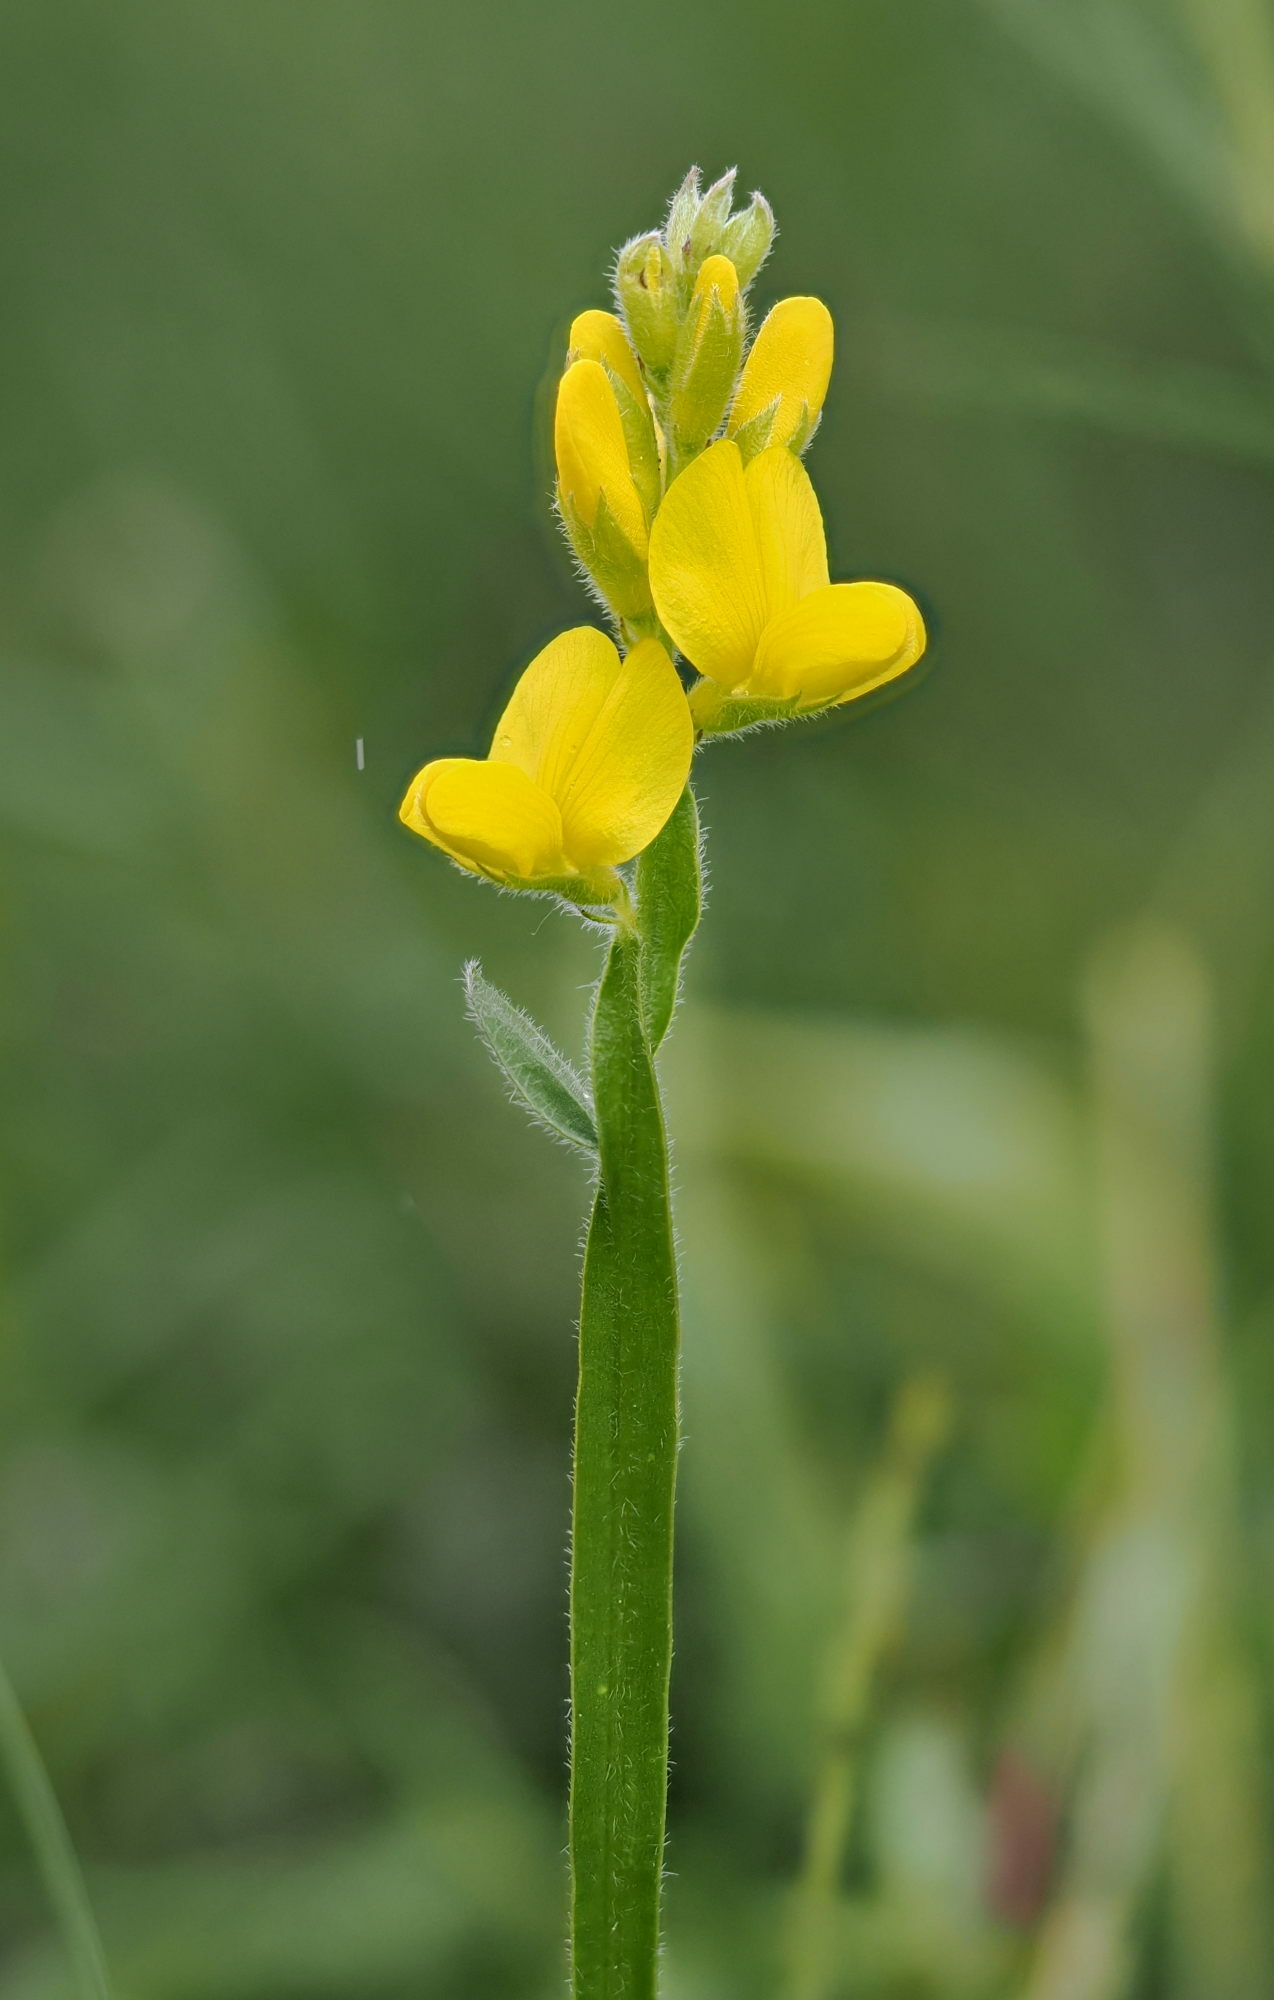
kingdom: Plantae
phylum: Tracheophyta
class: Magnoliopsida
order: Fabales
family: Fabaceae
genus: Genista
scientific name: Genista sagittalis
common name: Winged greenweed
